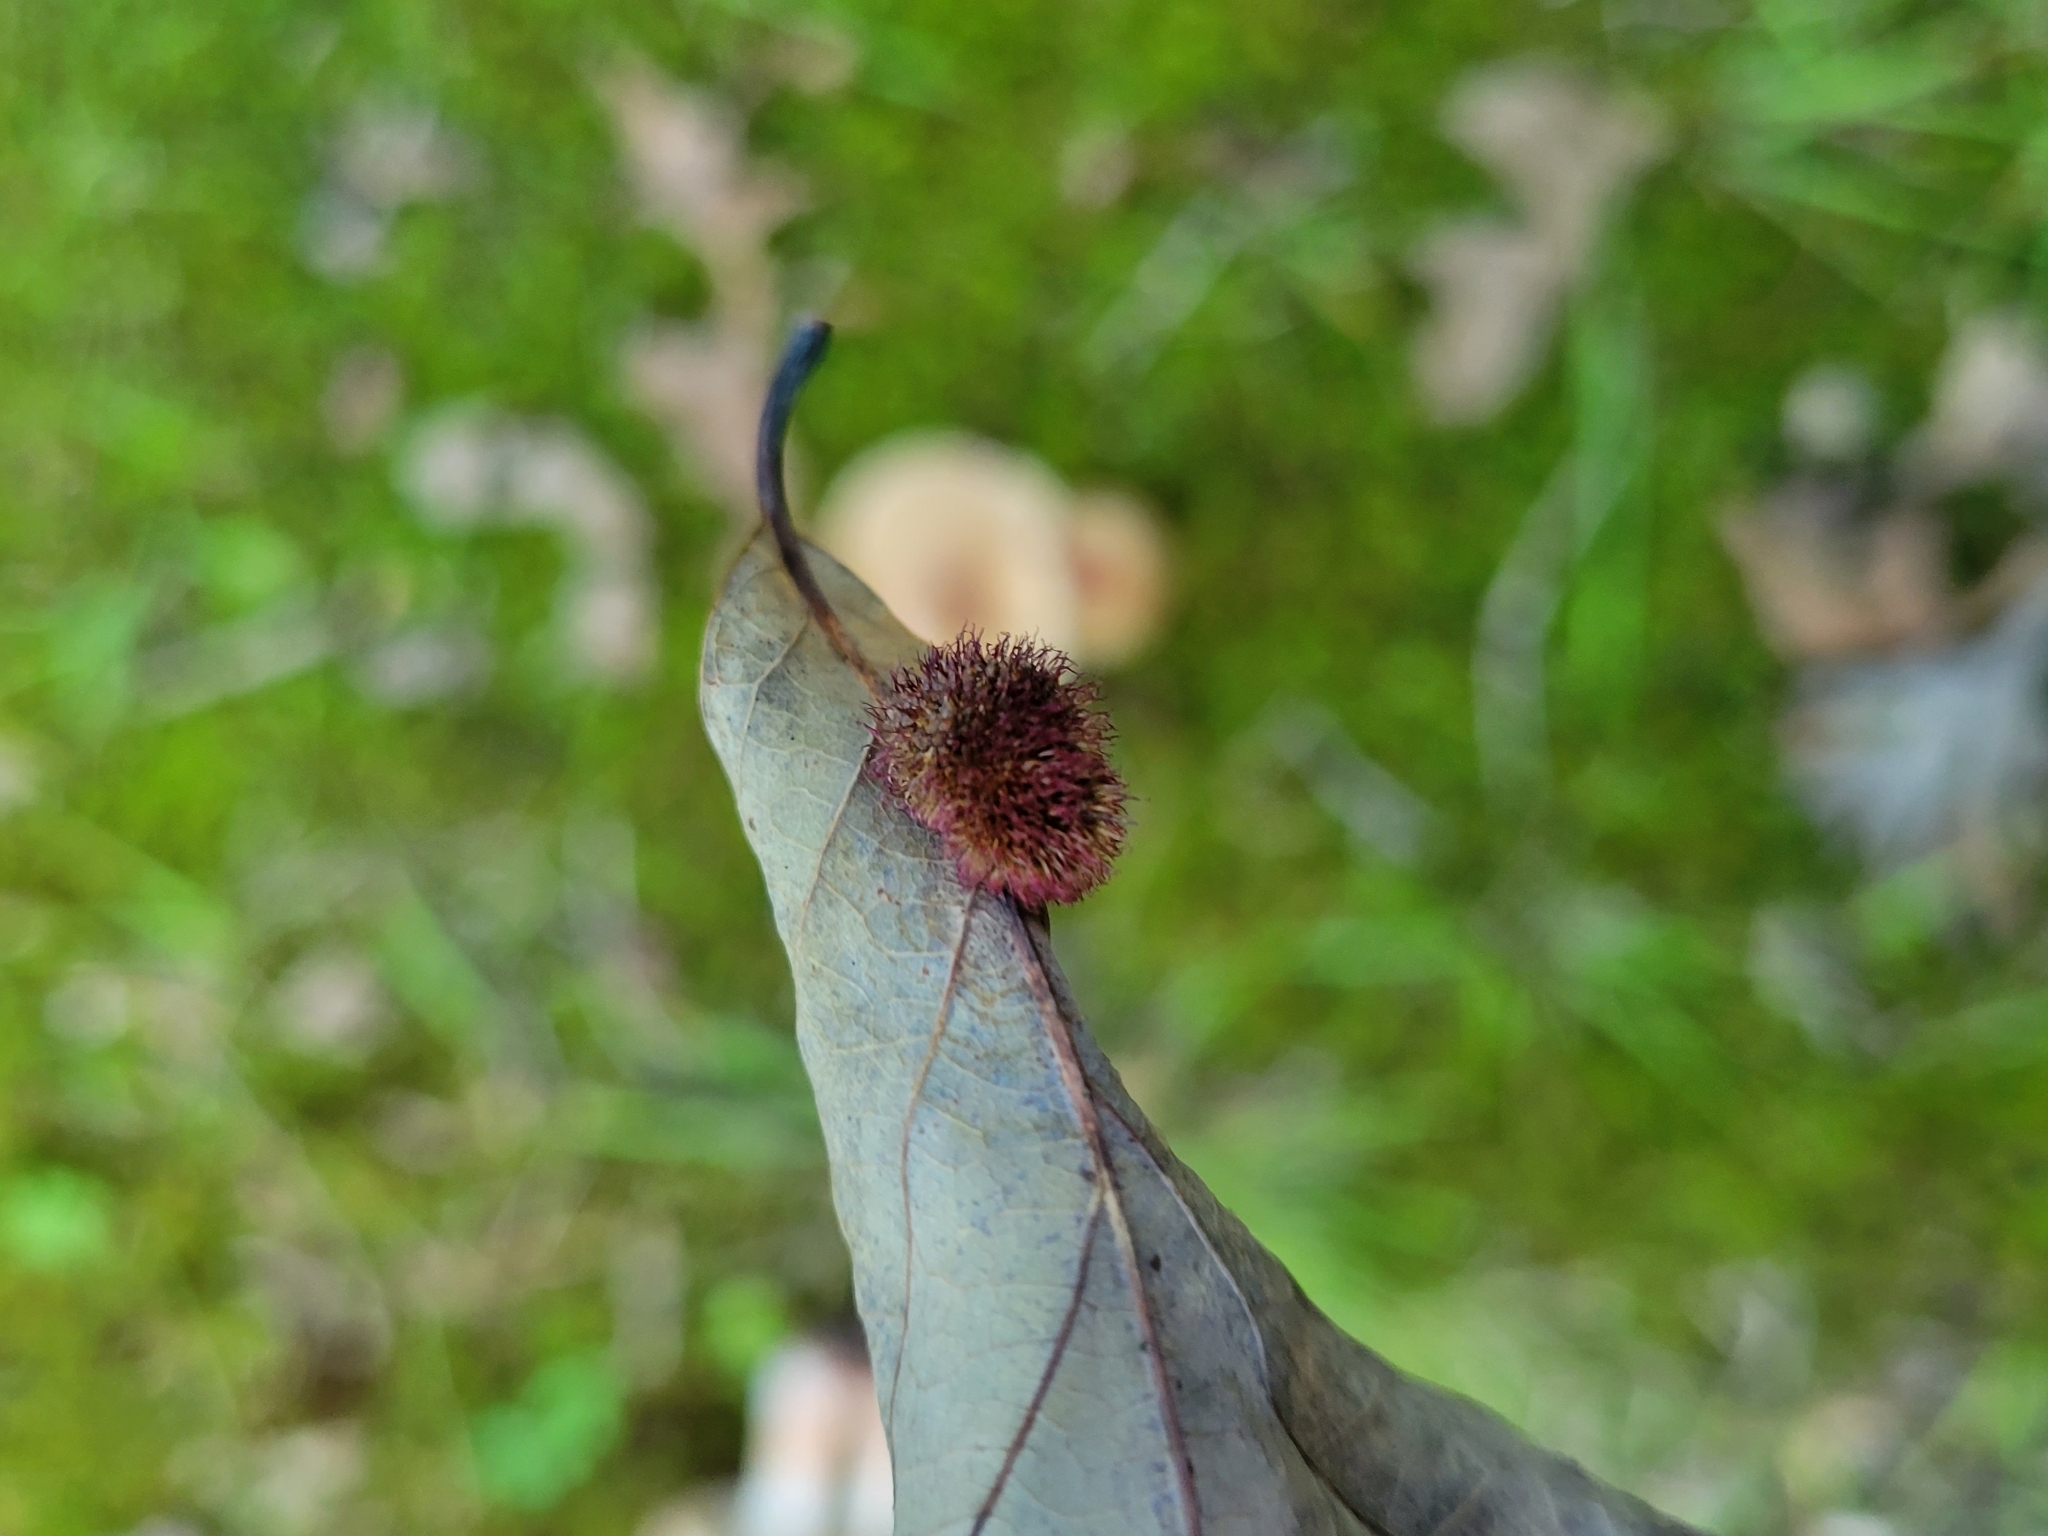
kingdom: Animalia
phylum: Arthropoda
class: Insecta
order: Hymenoptera
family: Cynipidae
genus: Acraspis
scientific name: Acraspis erinacei
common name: Hedgehog gall wasp
